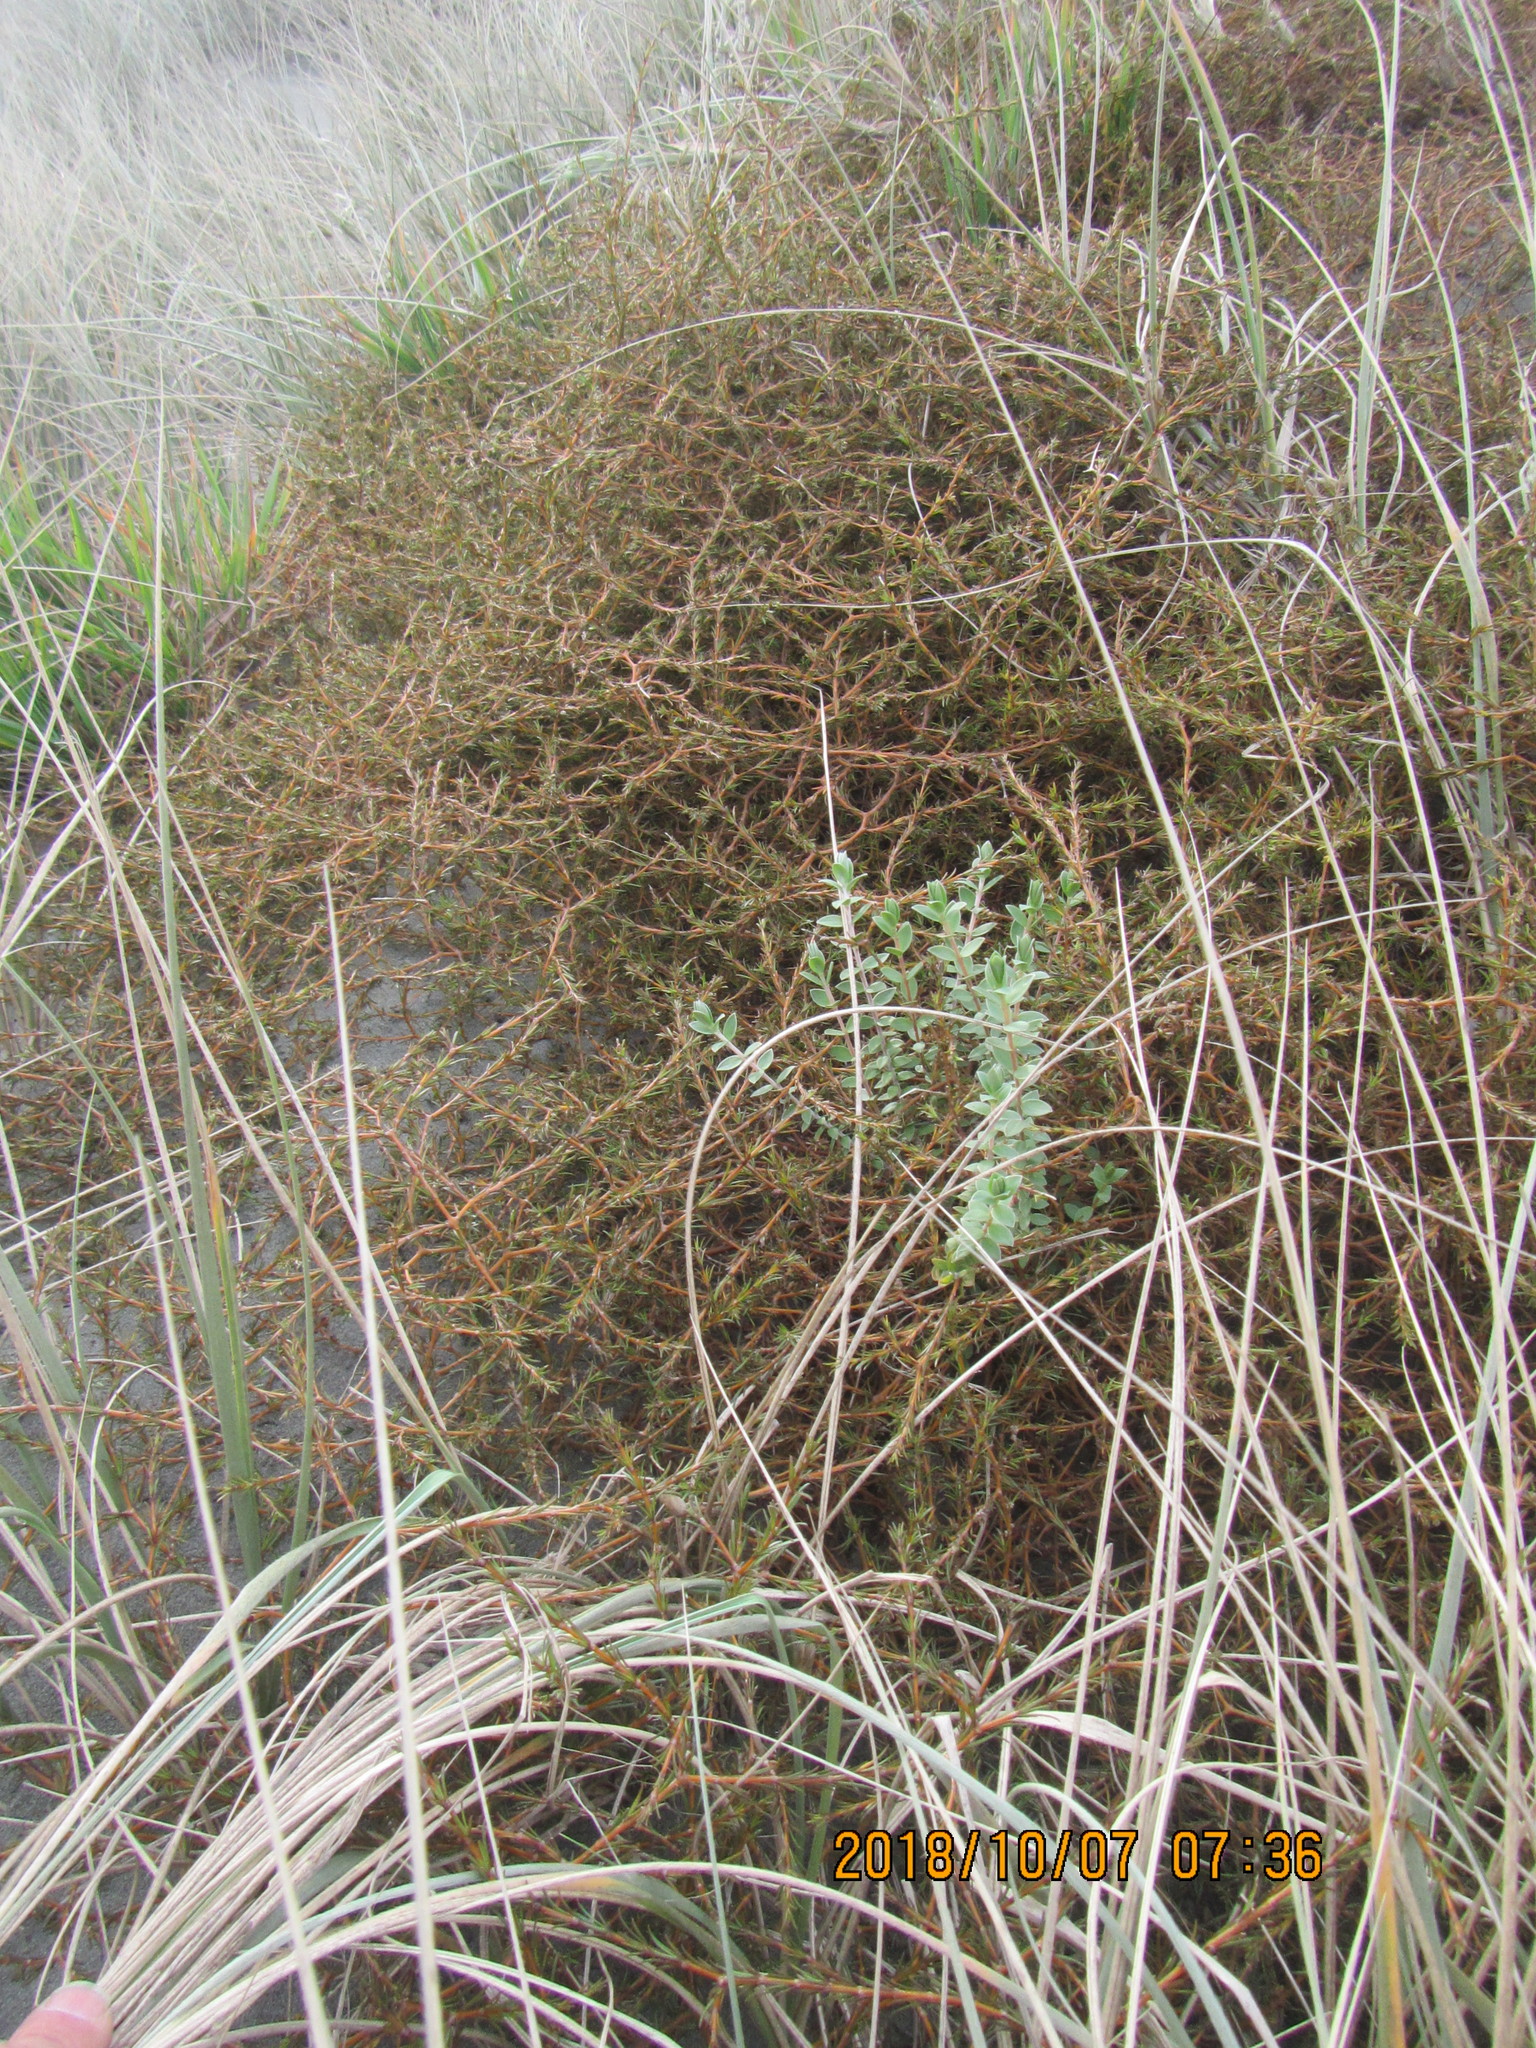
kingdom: Plantae
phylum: Tracheophyta
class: Magnoliopsida
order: Gentianales
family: Rubiaceae
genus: Coprosma
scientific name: Coprosma acerosa
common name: Sand coprosma
